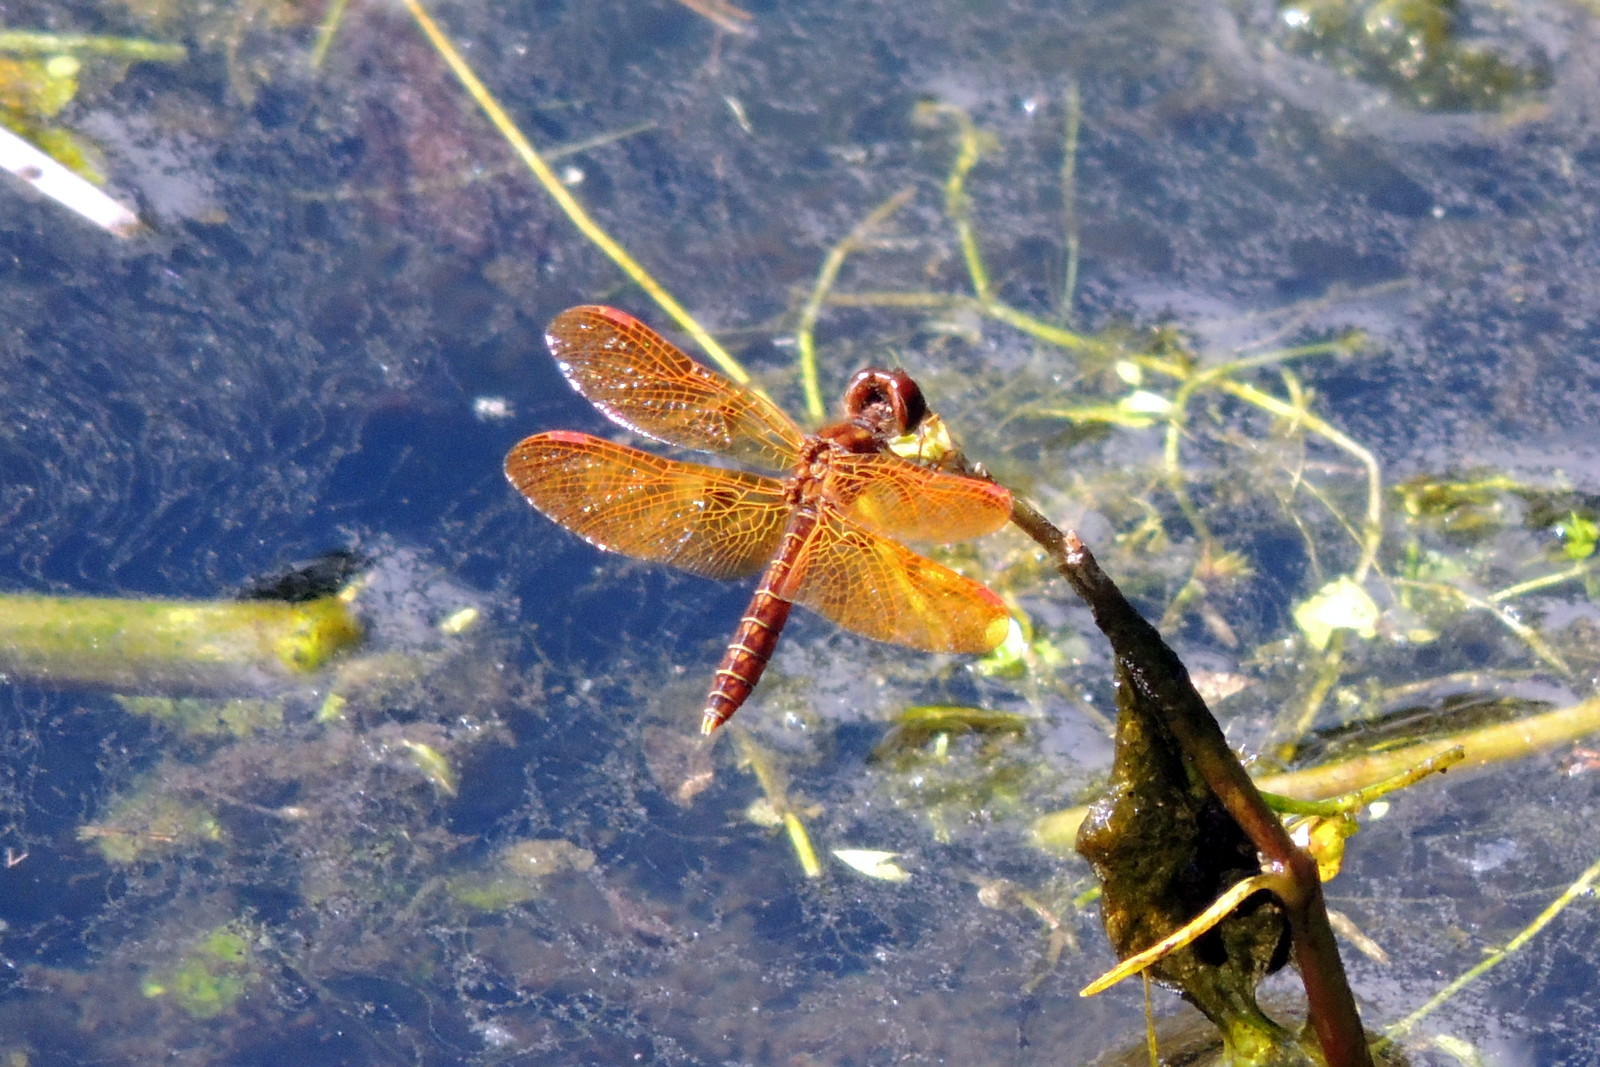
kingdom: Animalia
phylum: Arthropoda
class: Insecta
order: Odonata
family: Libellulidae
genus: Perithemis
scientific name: Perithemis tenera
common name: Eastern amberwing
